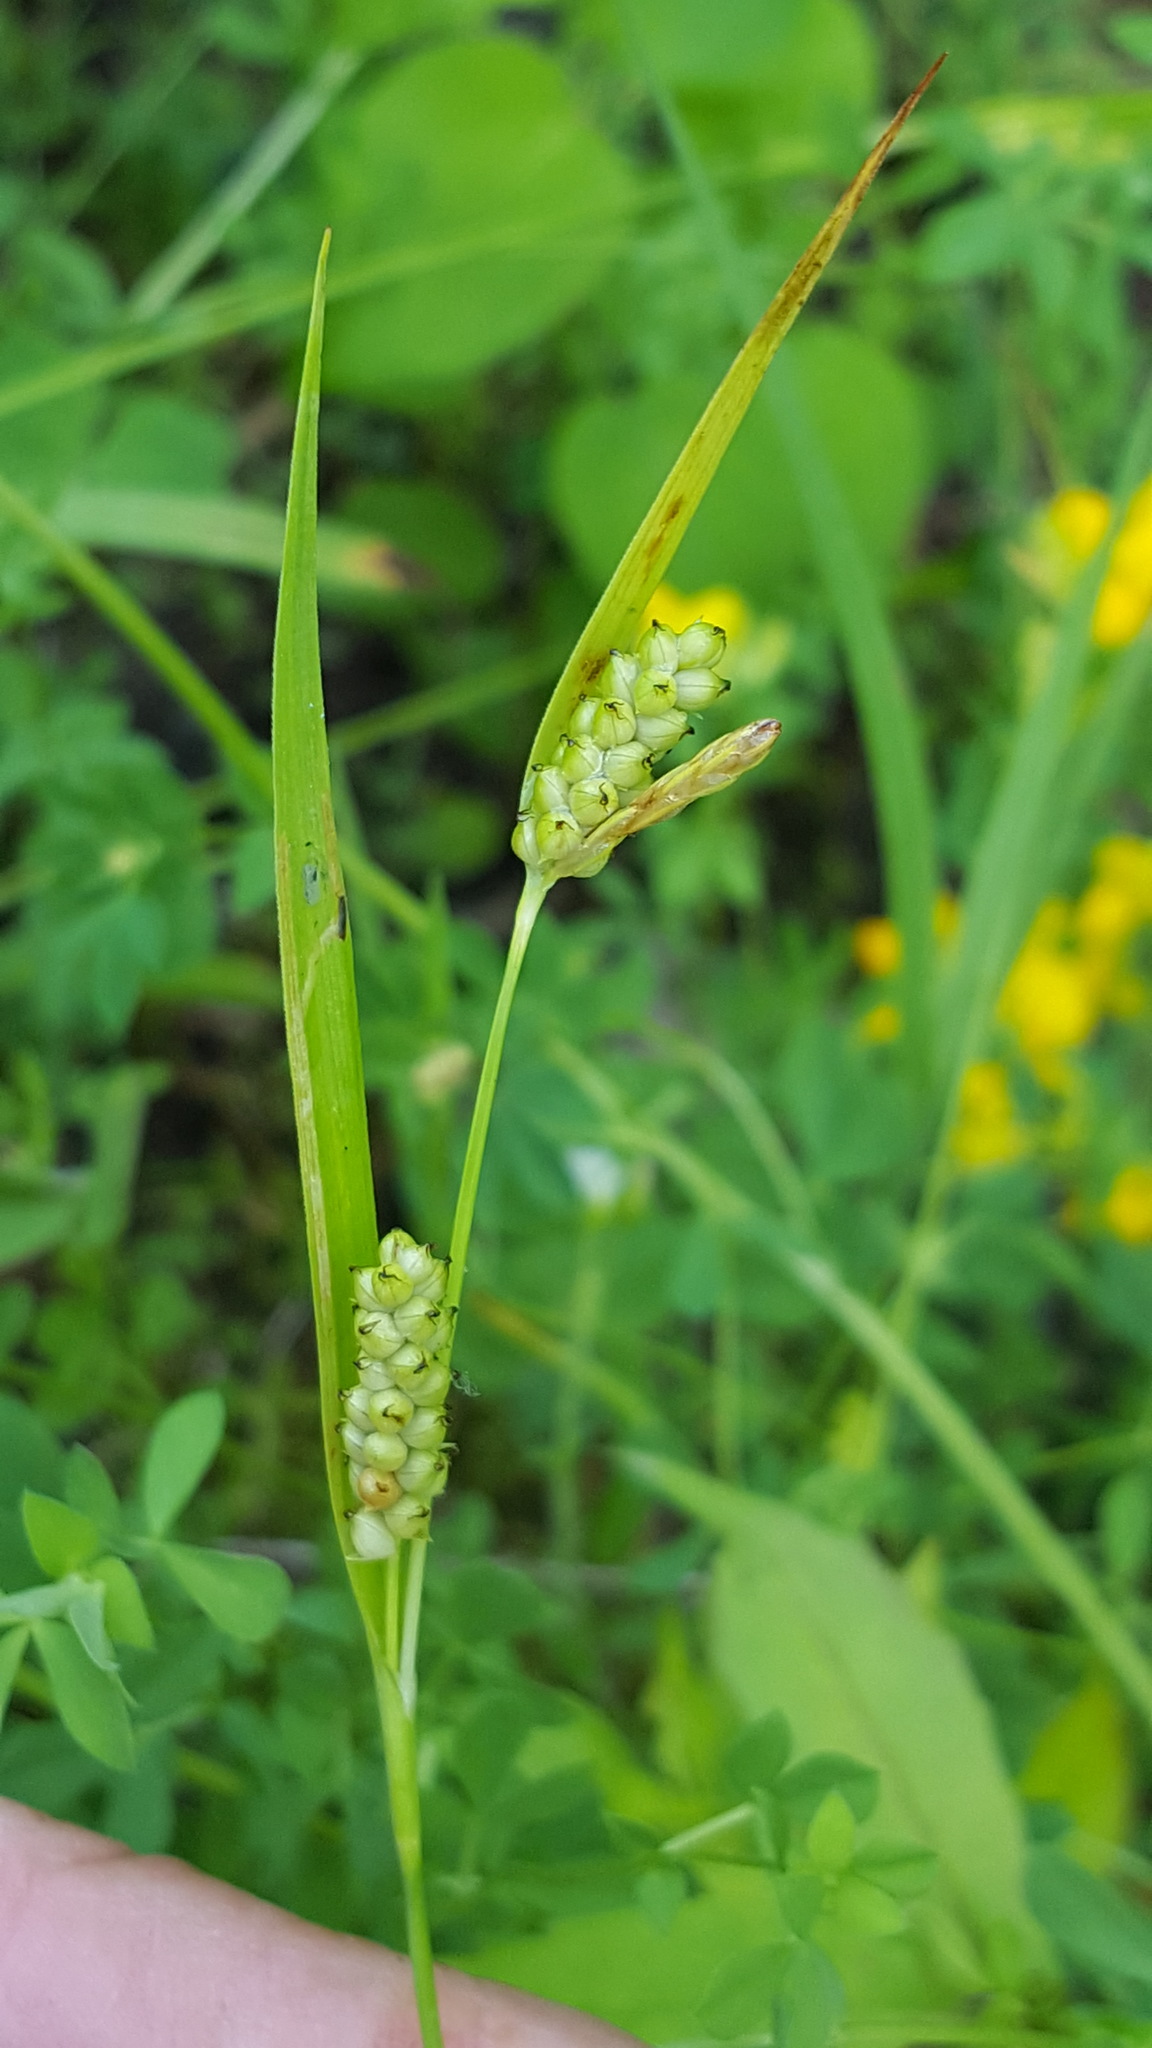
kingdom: Plantae
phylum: Tracheophyta
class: Liliopsida
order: Poales
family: Cyperaceae
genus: Carex
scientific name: Carex granularis
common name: Granular sedge
